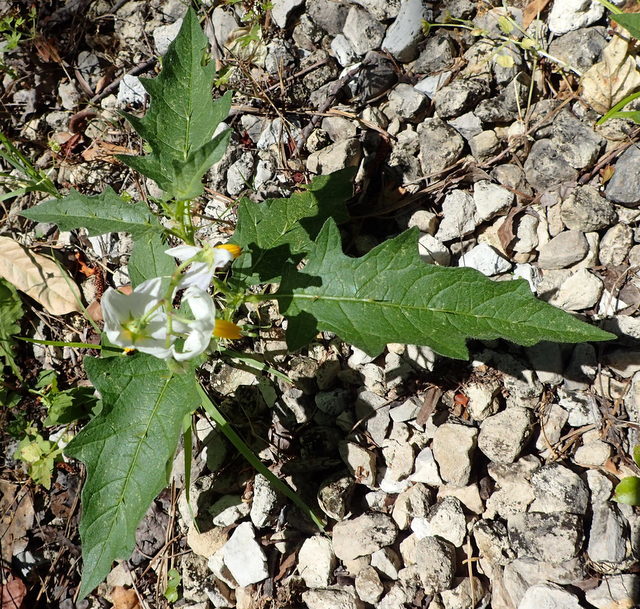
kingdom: Plantae
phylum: Tracheophyta
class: Magnoliopsida
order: Solanales
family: Solanaceae
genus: Solanum
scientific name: Solanum carolinense
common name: Horse-nettle
